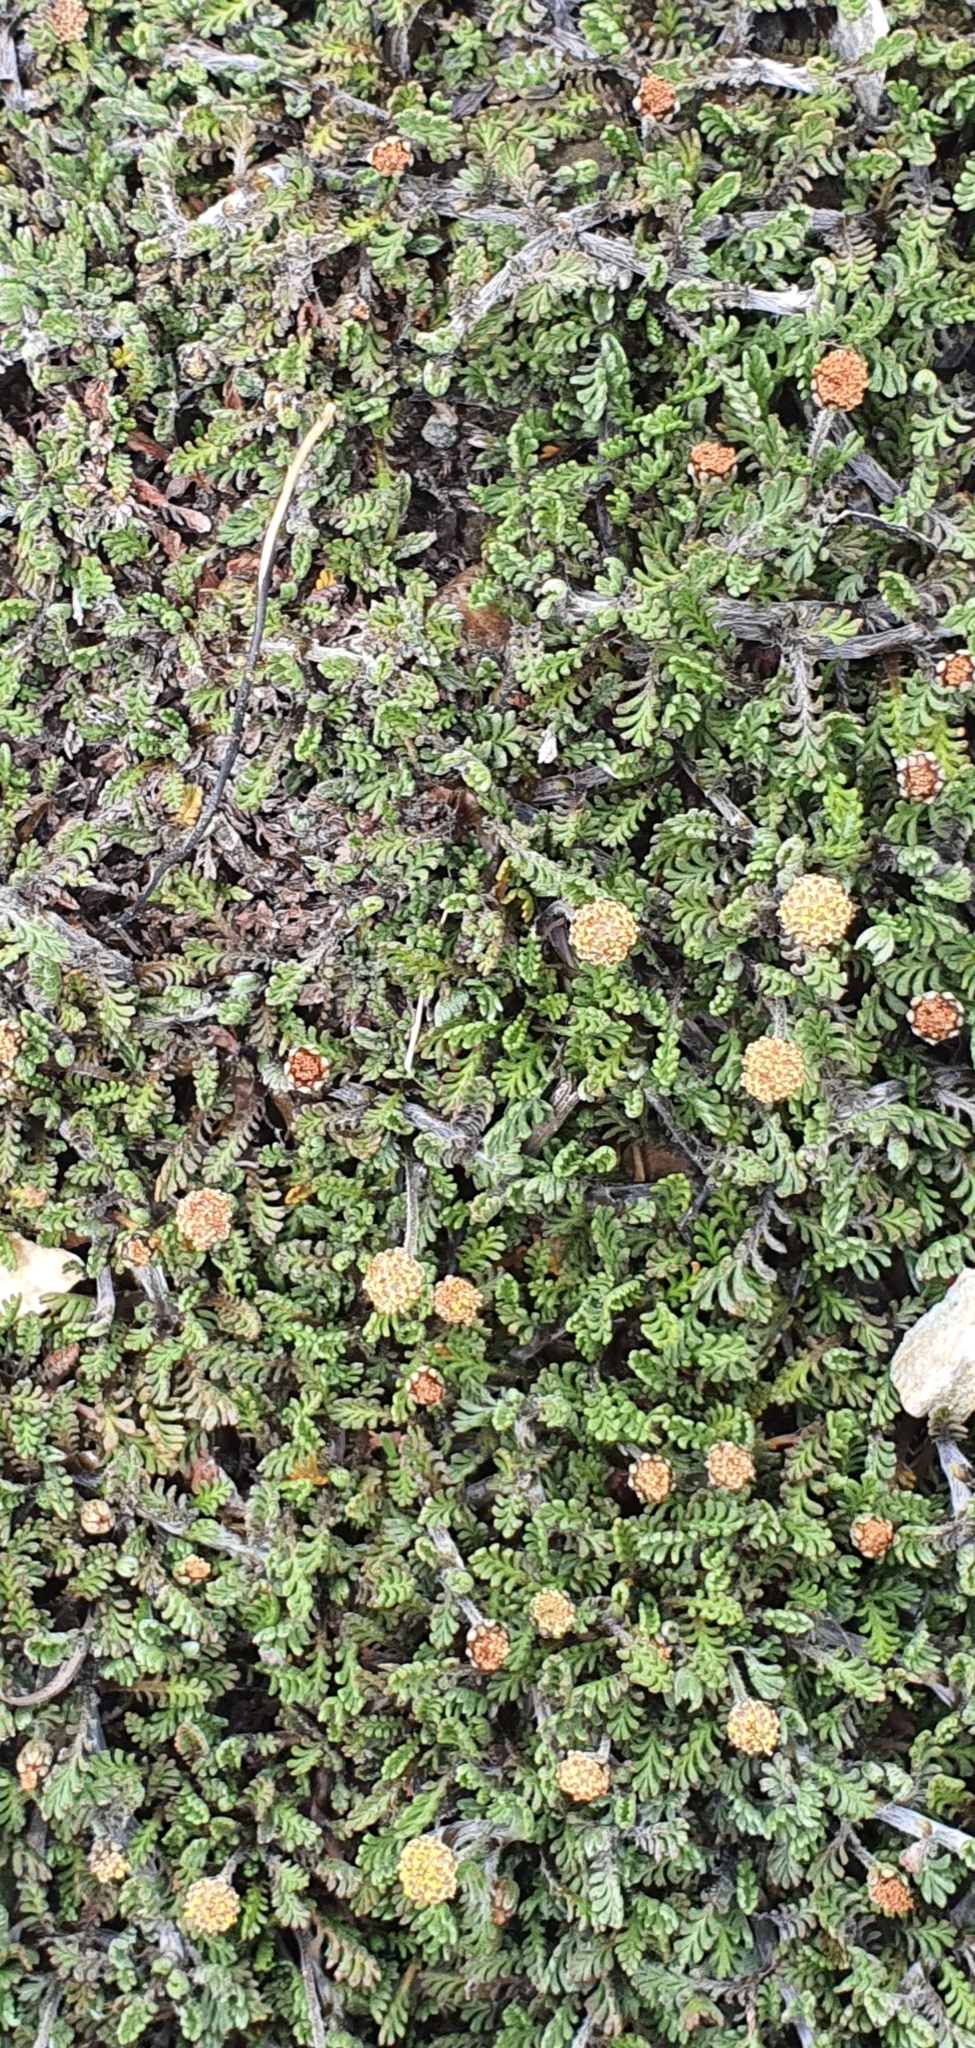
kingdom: Plantae
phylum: Tracheophyta
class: Magnoliopsida
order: Asterales
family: Asteraceae
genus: Leptinella
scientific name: Leptinella pectinata
